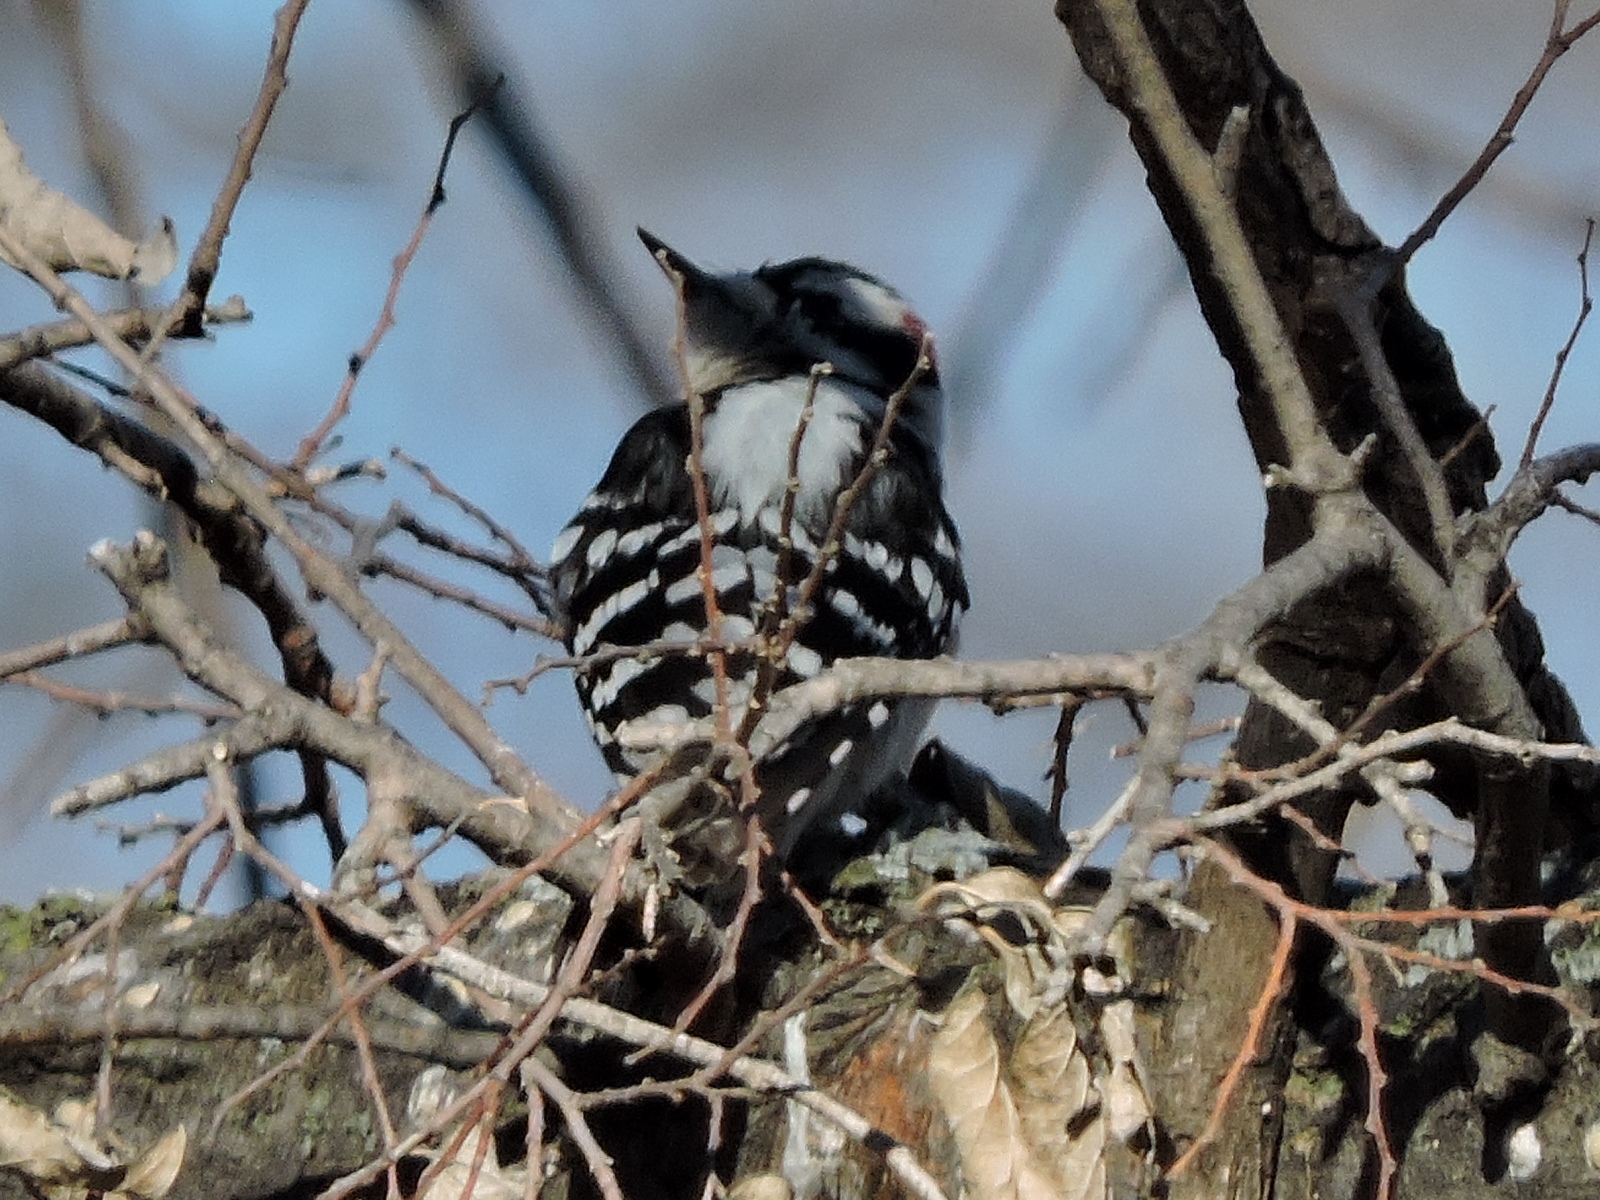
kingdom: Animalia
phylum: Chordata
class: Aves
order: Piciformes
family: Picidae
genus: Dryobates
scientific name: Dryobates pubescens
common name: Downy woodpecker
